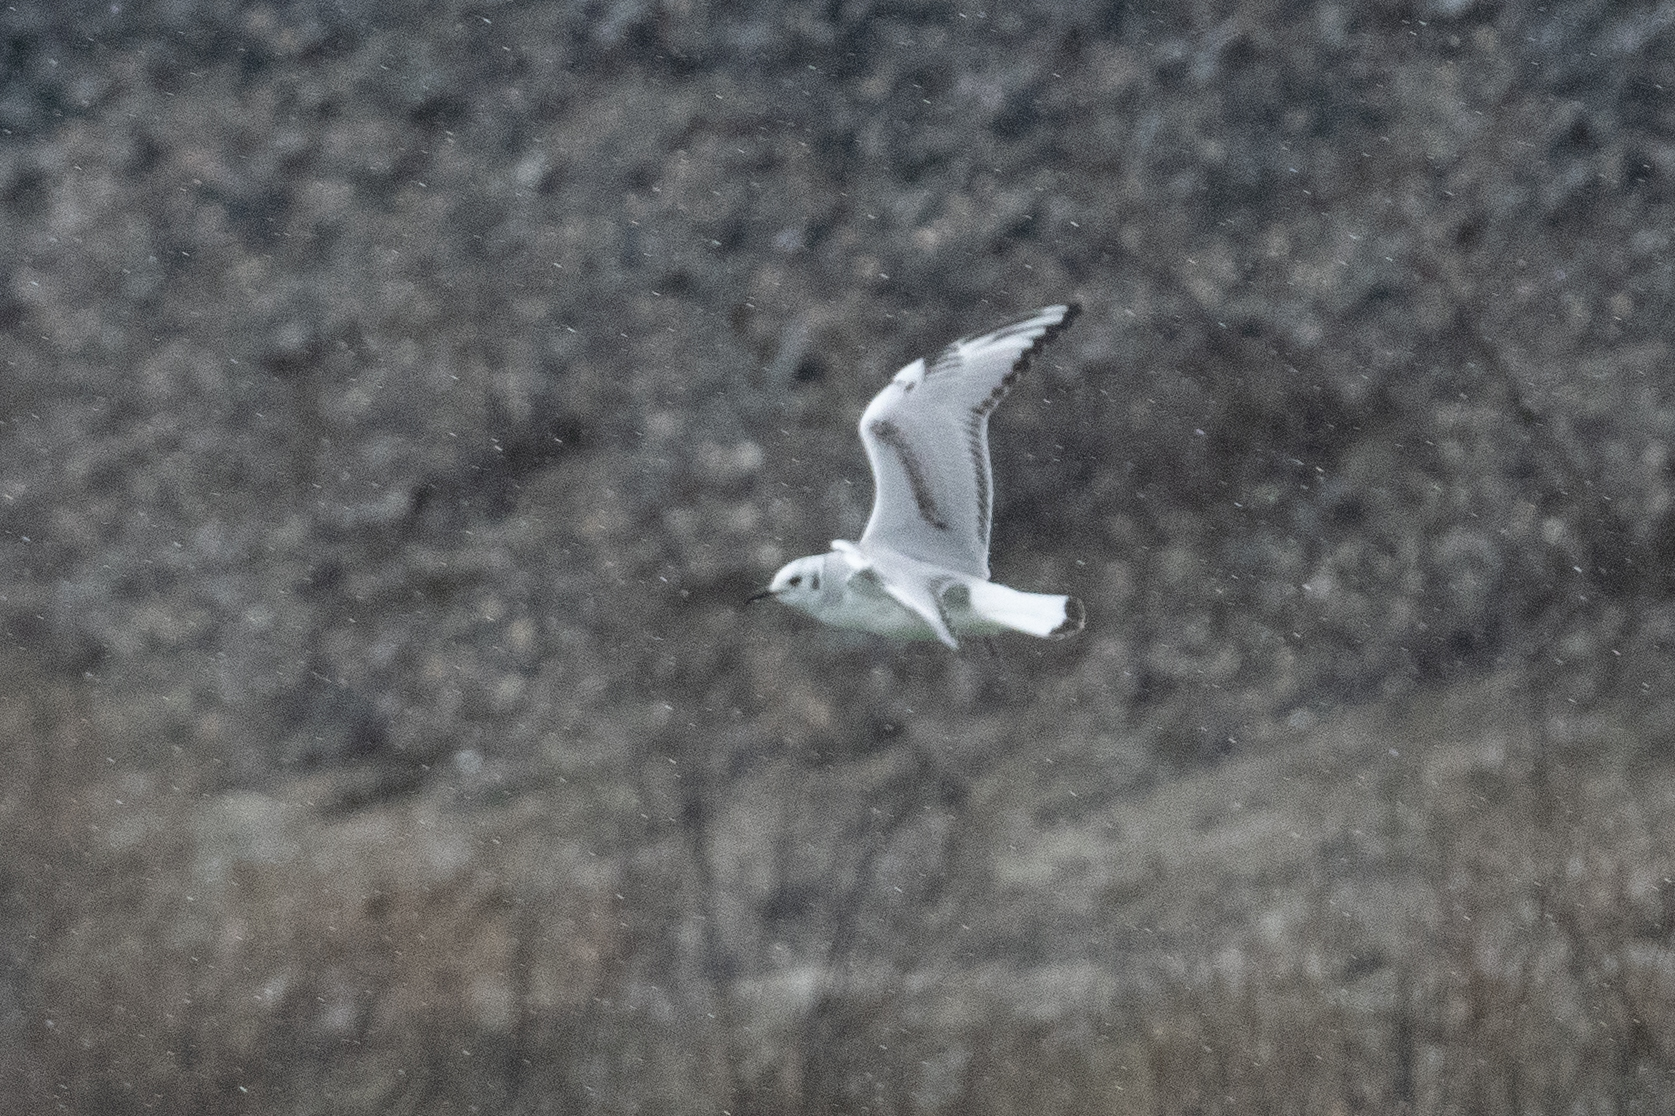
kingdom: Animalia
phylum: Chordata
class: Aves
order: Charadriiformes
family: Laridae
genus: Chroicocephalus
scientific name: Chroicocephalus philadelphia
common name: Bonaparte's gull
